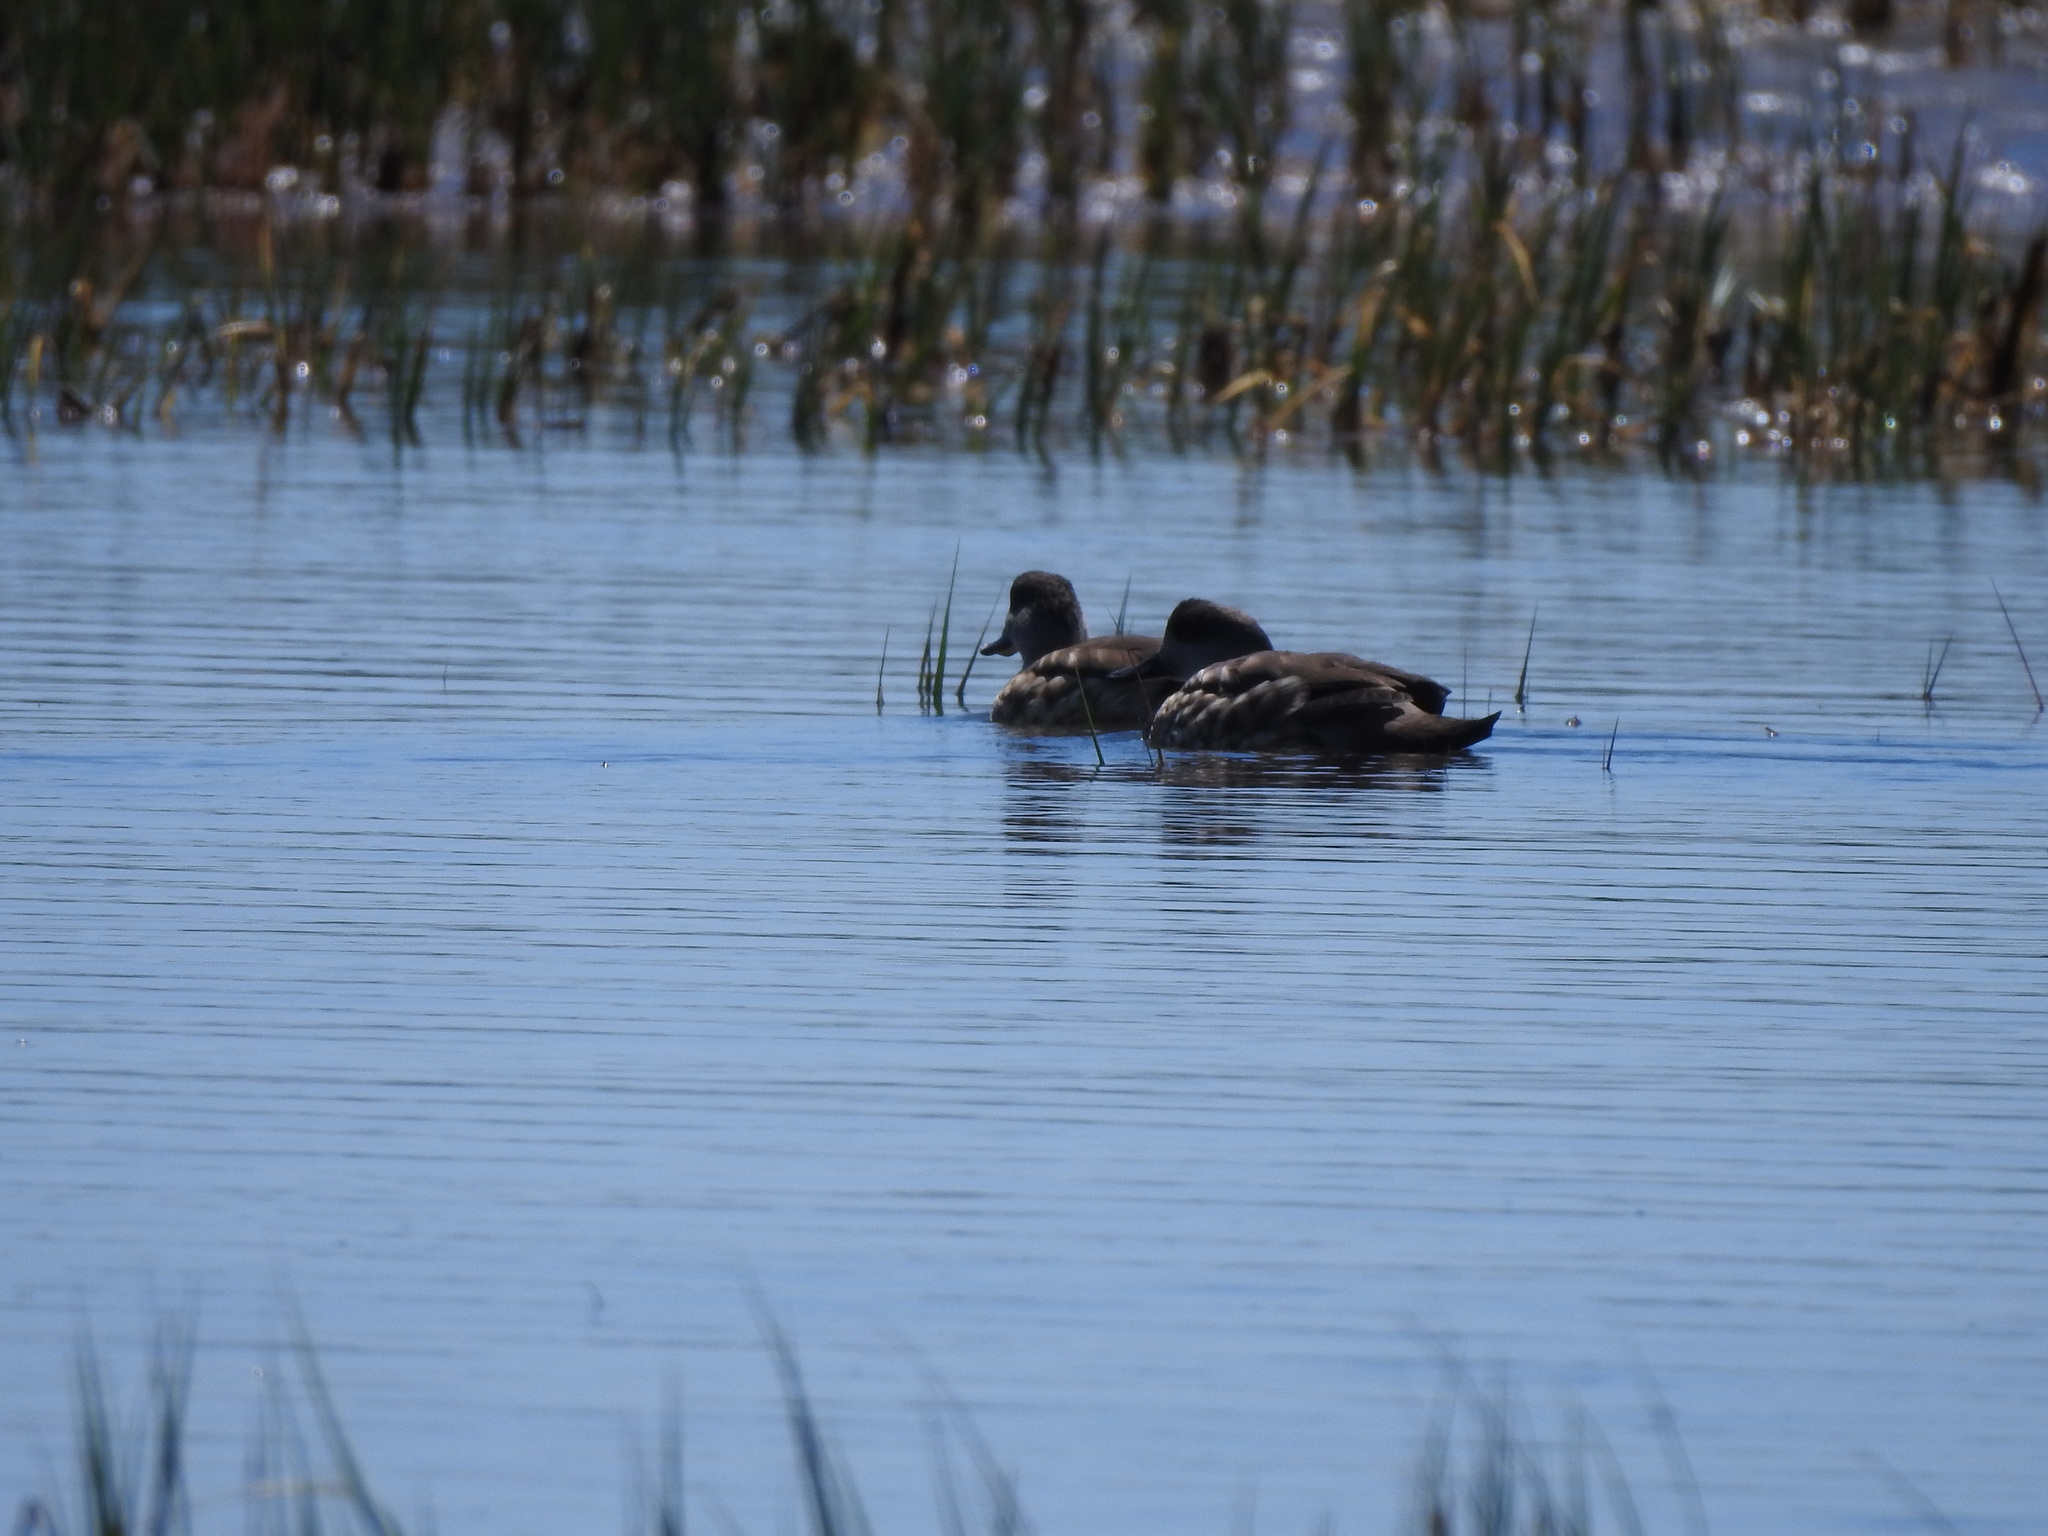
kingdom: Animalia
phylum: Chordata
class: Aves
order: Anseriformes
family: Anatidae
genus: Lophonetta
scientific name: Lophonetta specularioides
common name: Crested duck
